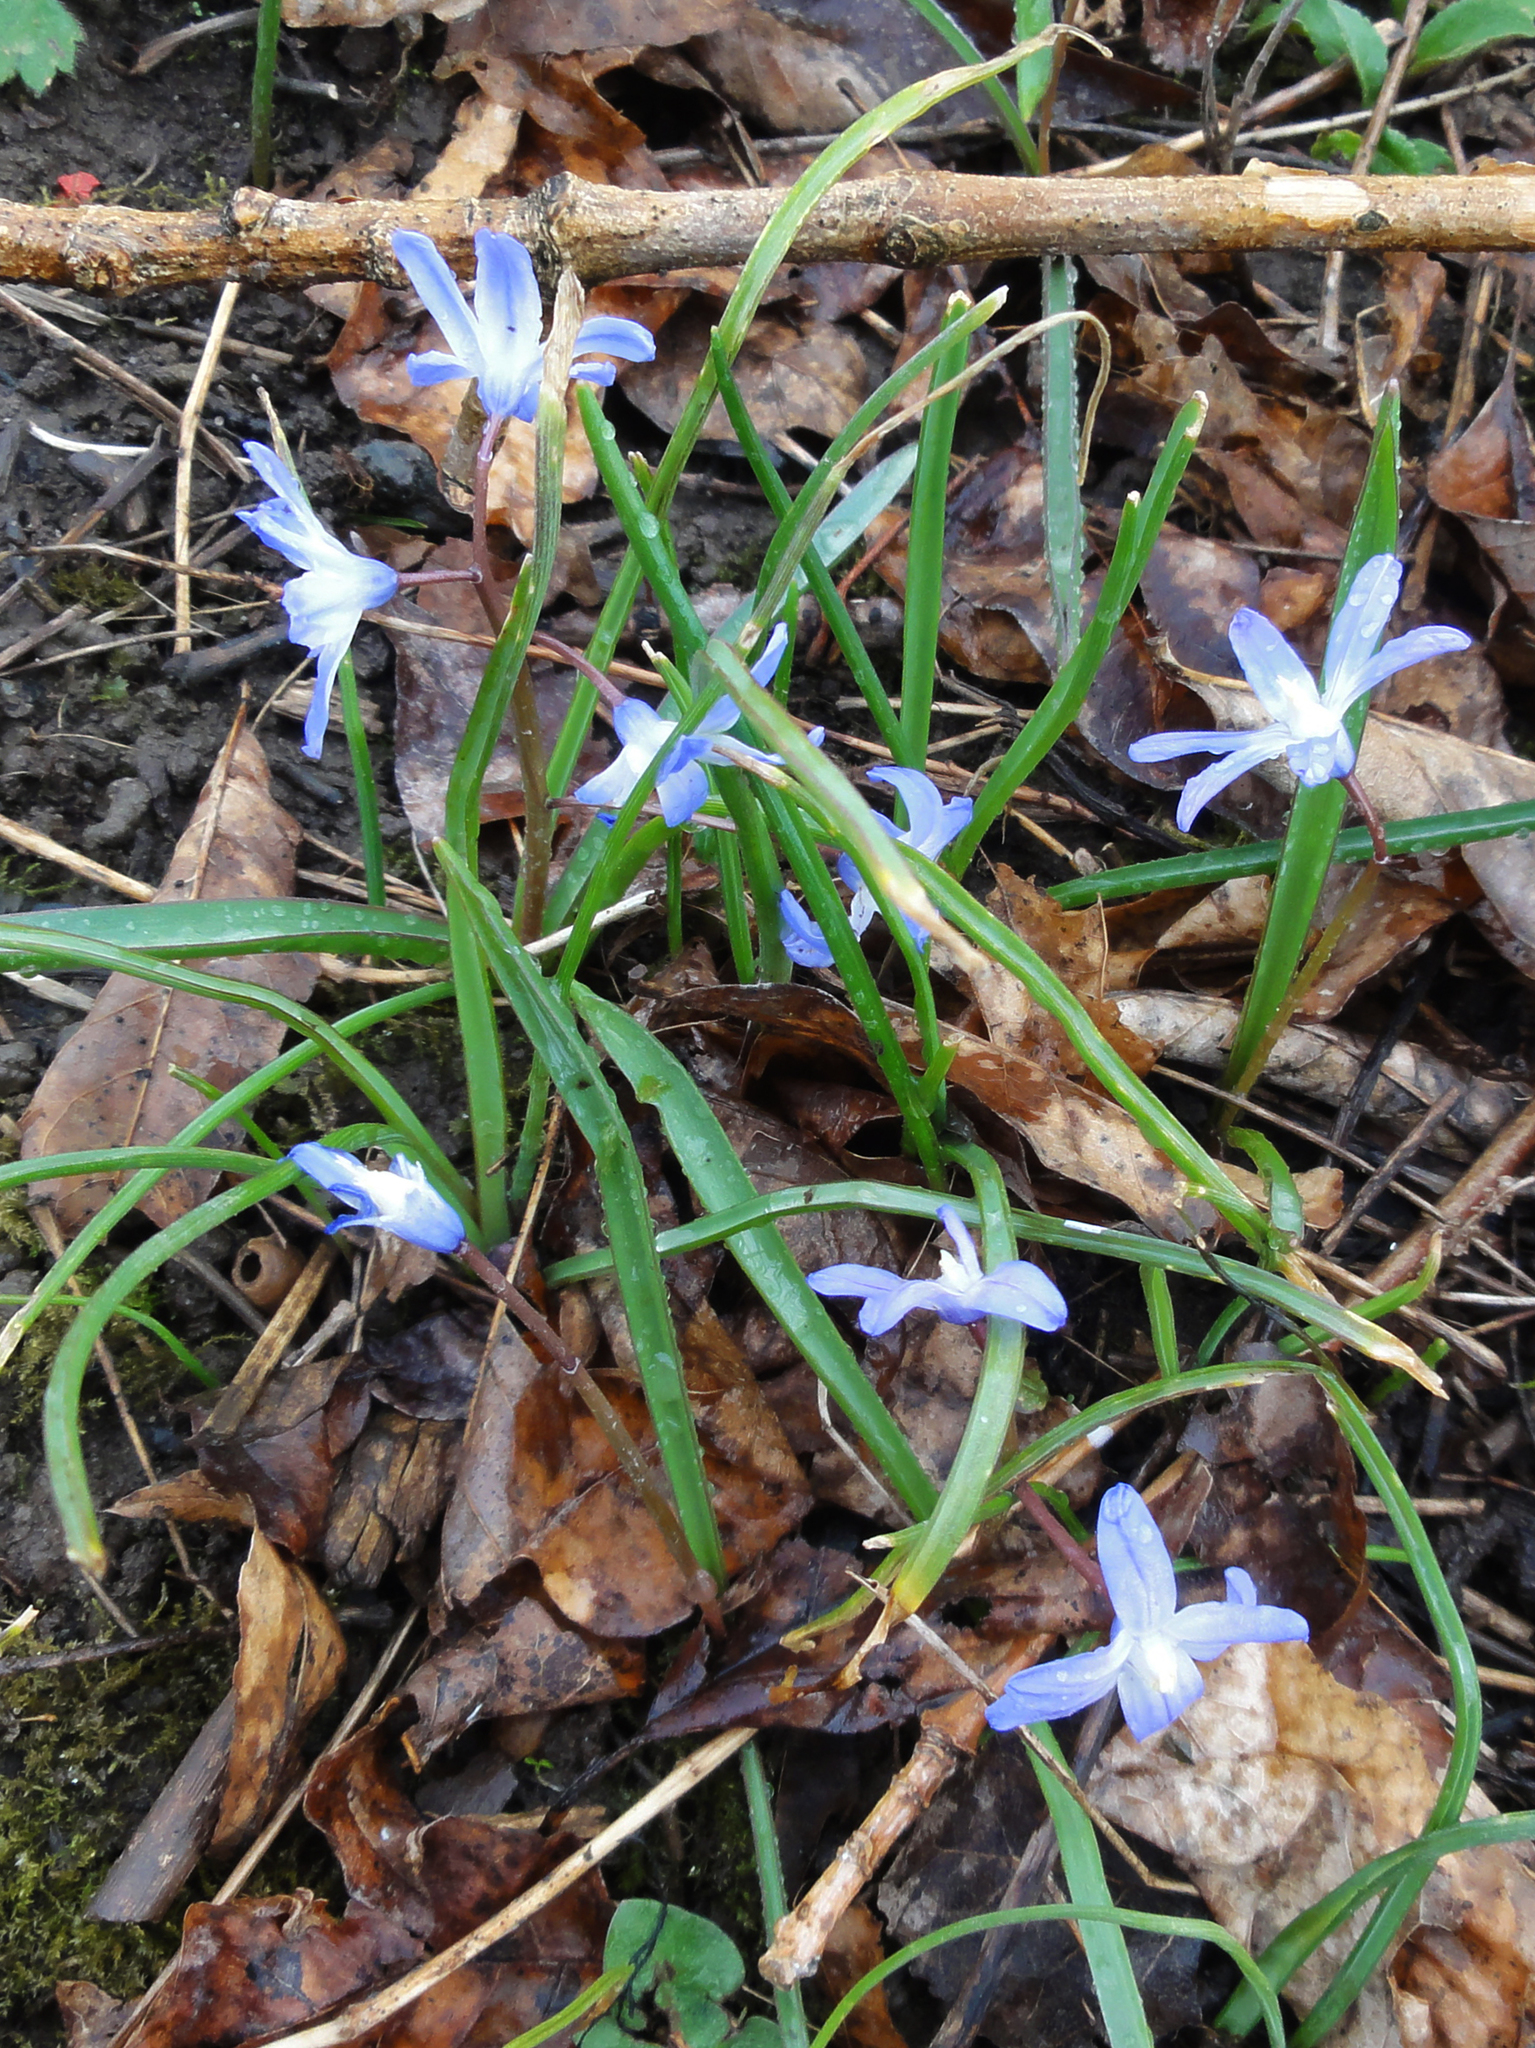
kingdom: Plantae
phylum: Tracheophyta
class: Liliopsida
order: Asparagales
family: Asparagaceae
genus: Scilla
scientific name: Scilla forbesii
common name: Glory-of-the-snow
